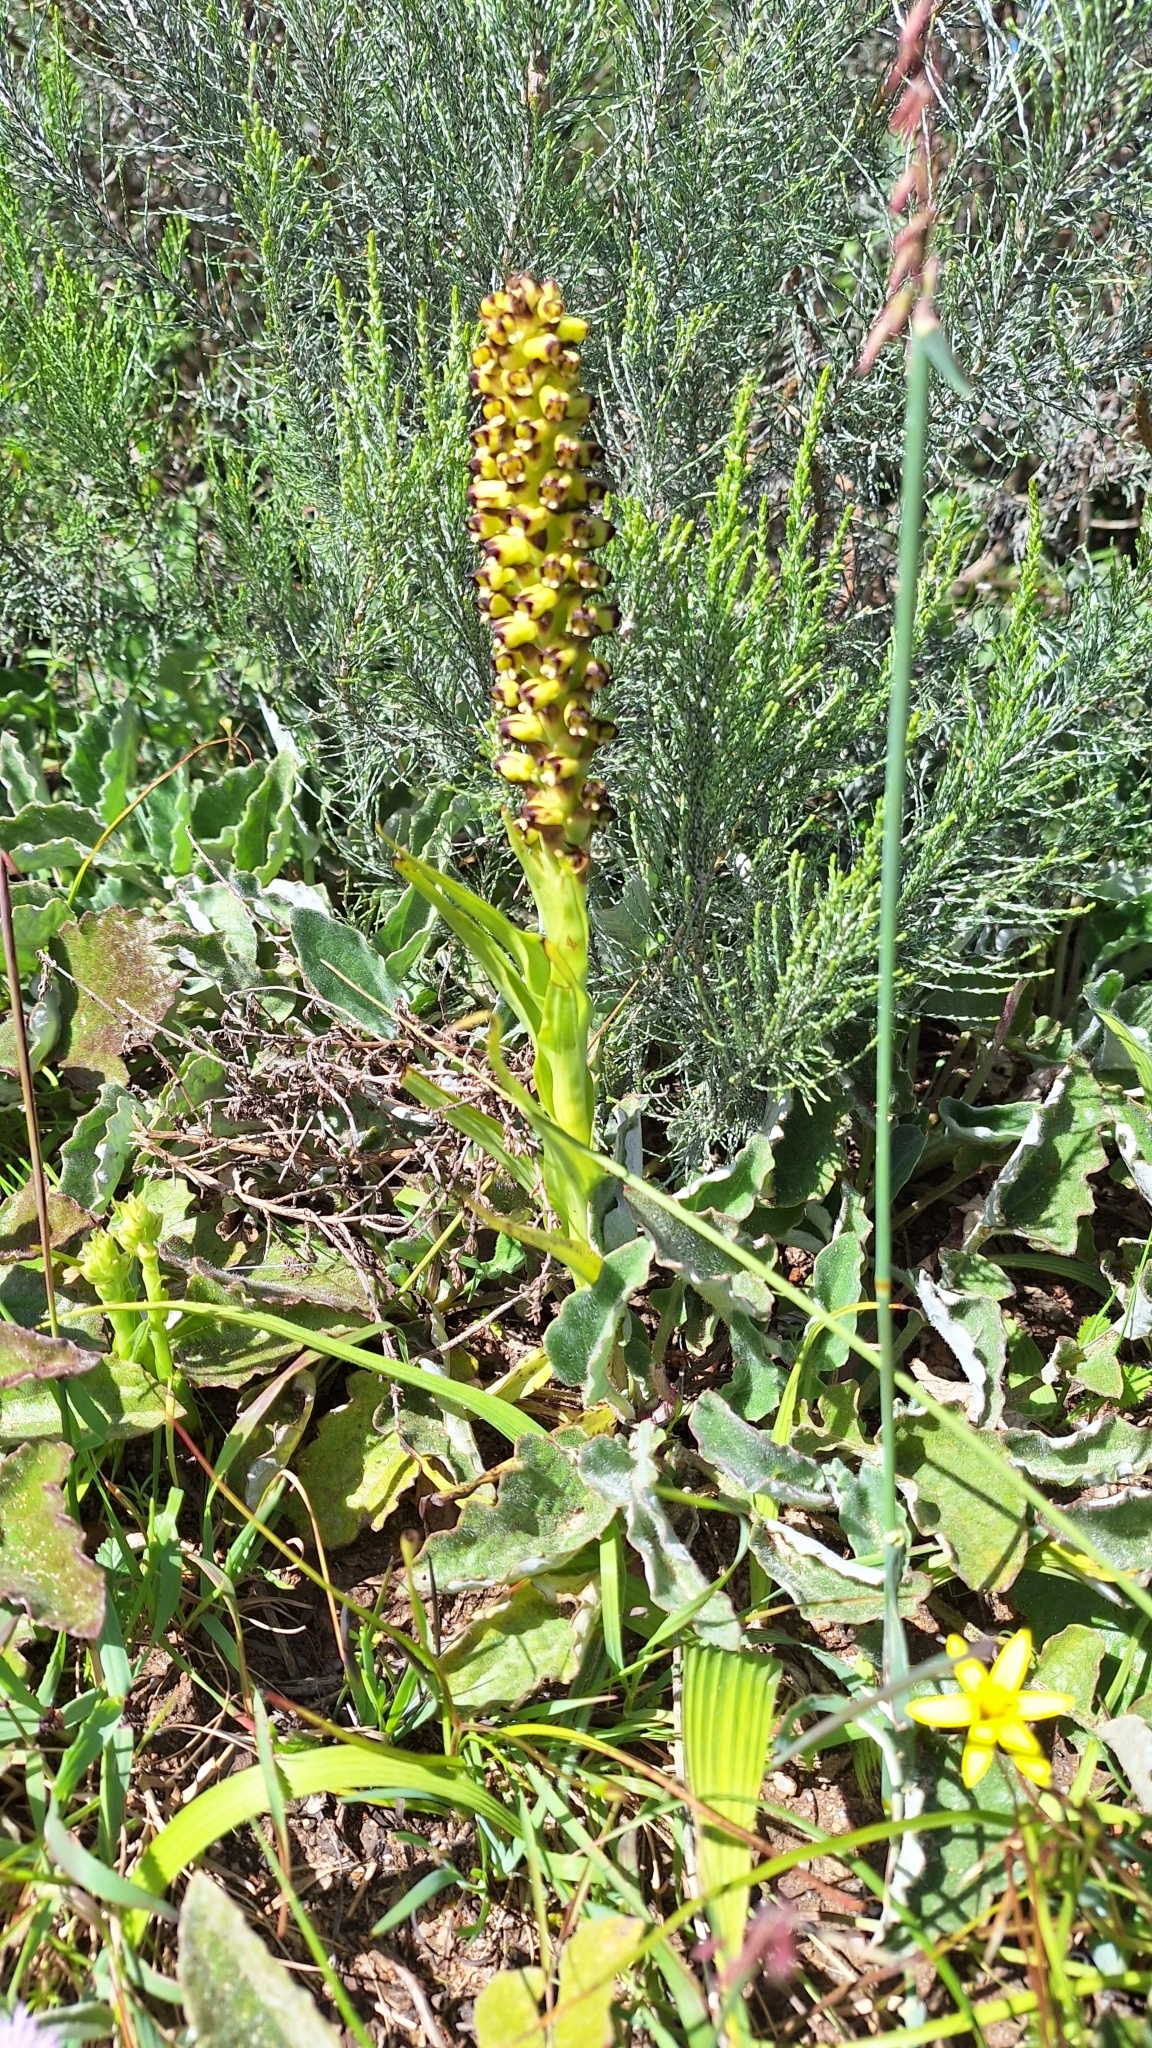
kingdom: Plantae
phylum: Tracheophyta
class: Liliopsida
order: Asparagales
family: Orchidaceae
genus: Corycium
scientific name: Corycium orobanchoides
